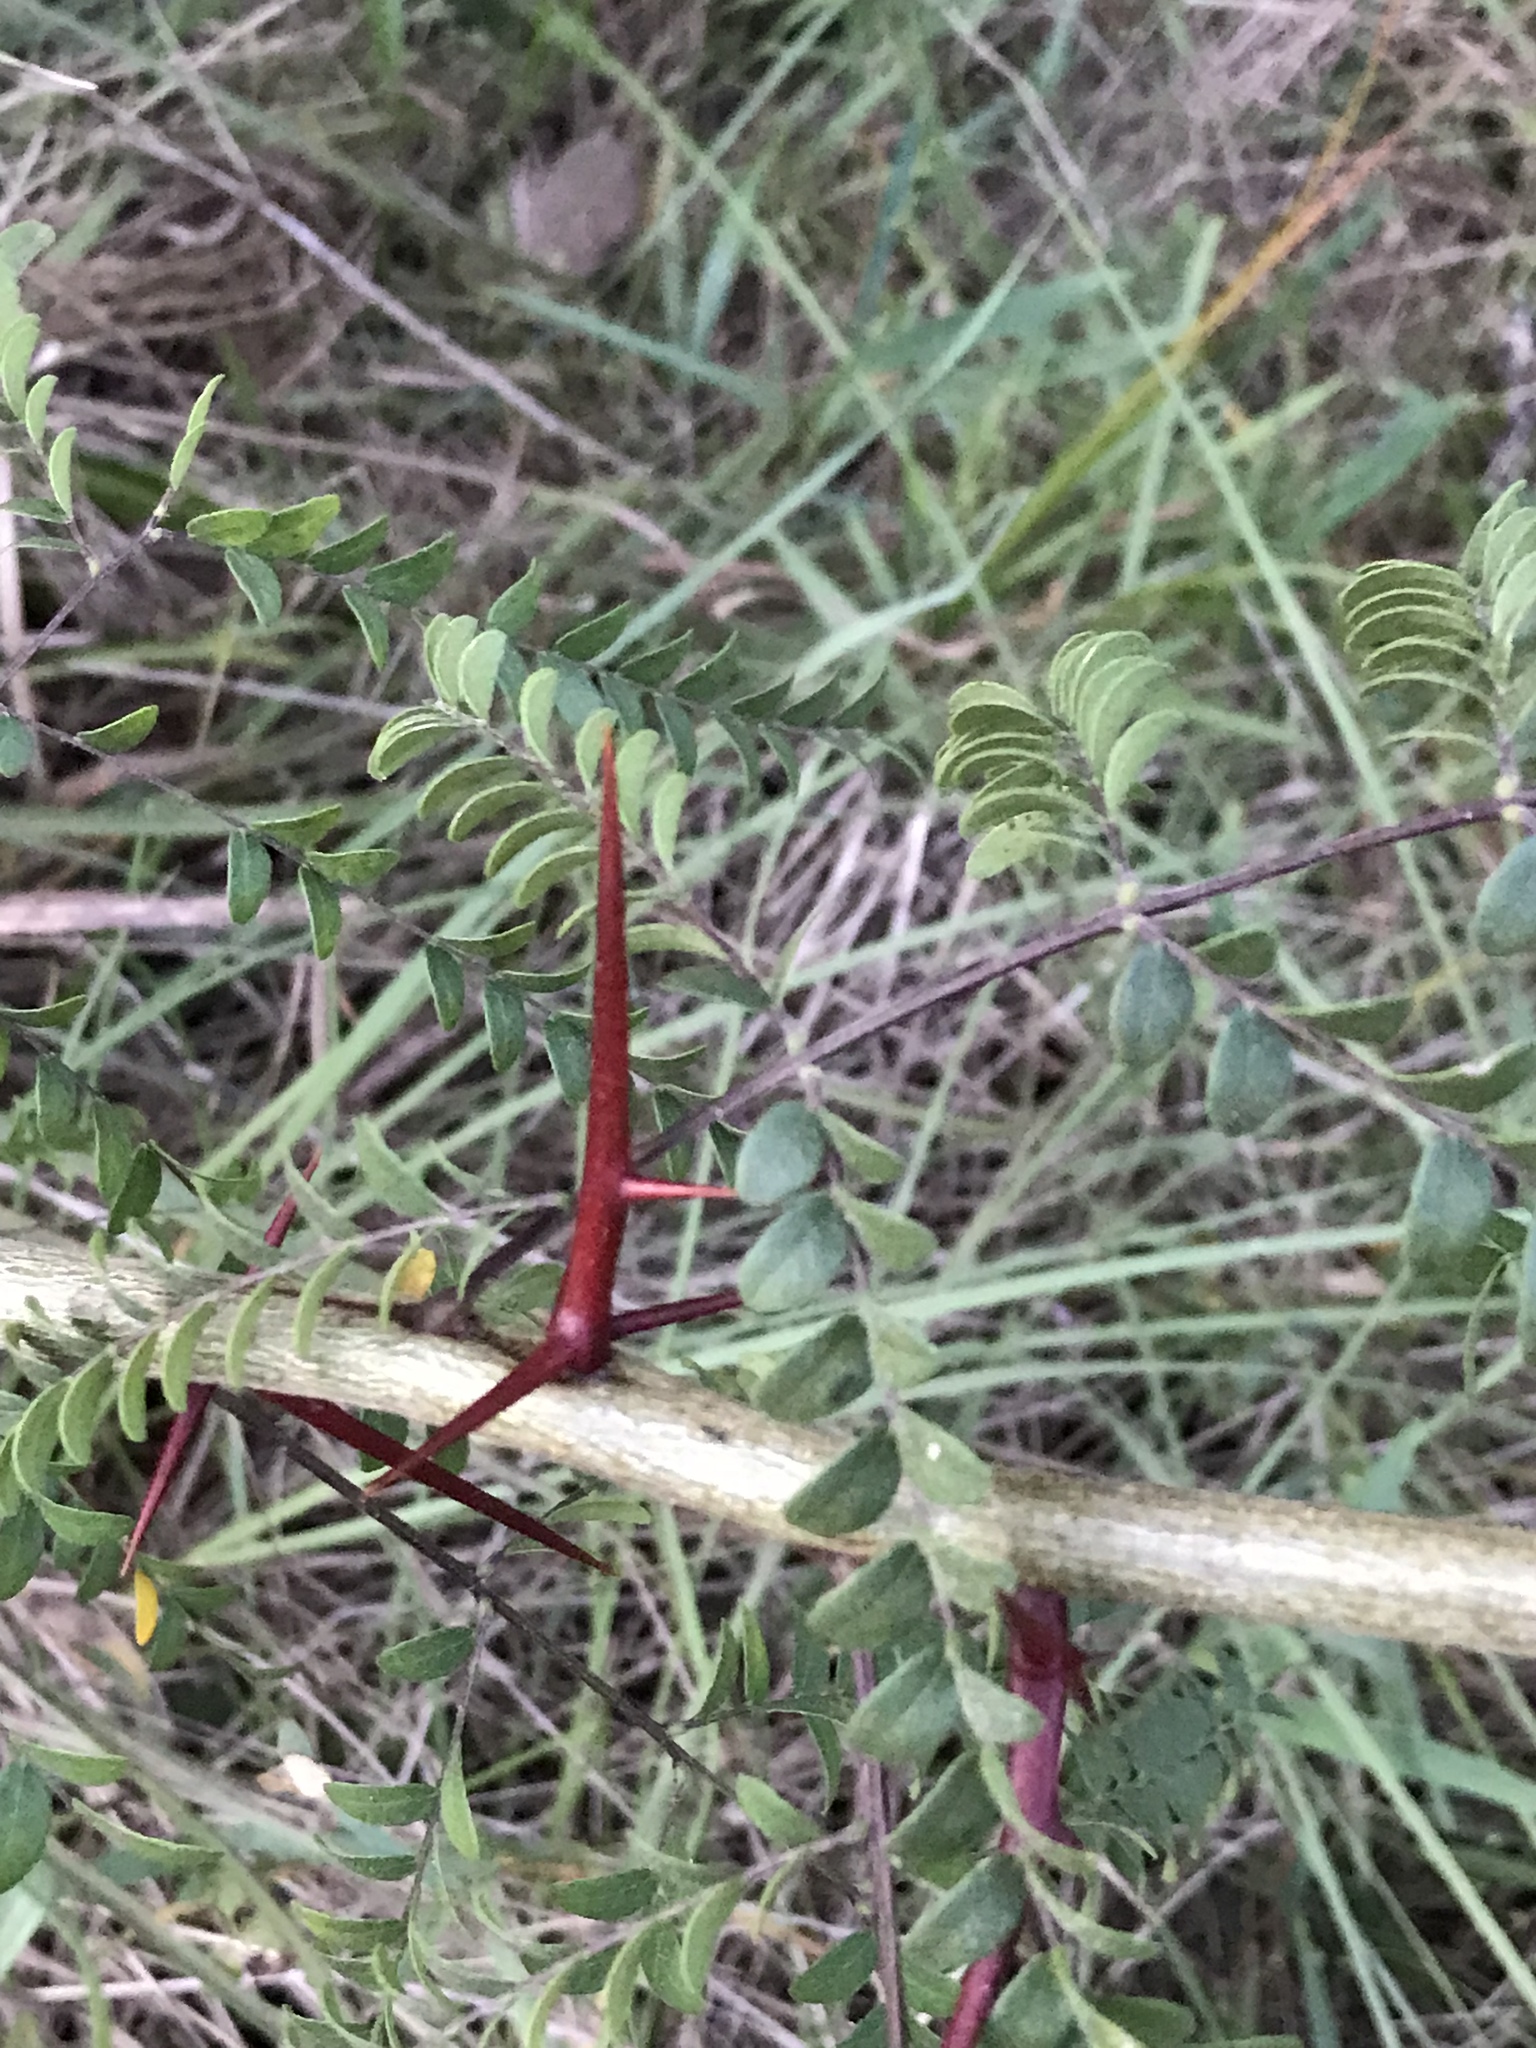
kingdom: Plantae
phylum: Tracheophyta
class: Magnoliopsida
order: Fabales
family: Fabaceae
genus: Gleditsia
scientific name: Gleditsia triacanthos
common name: Common honeylocust
